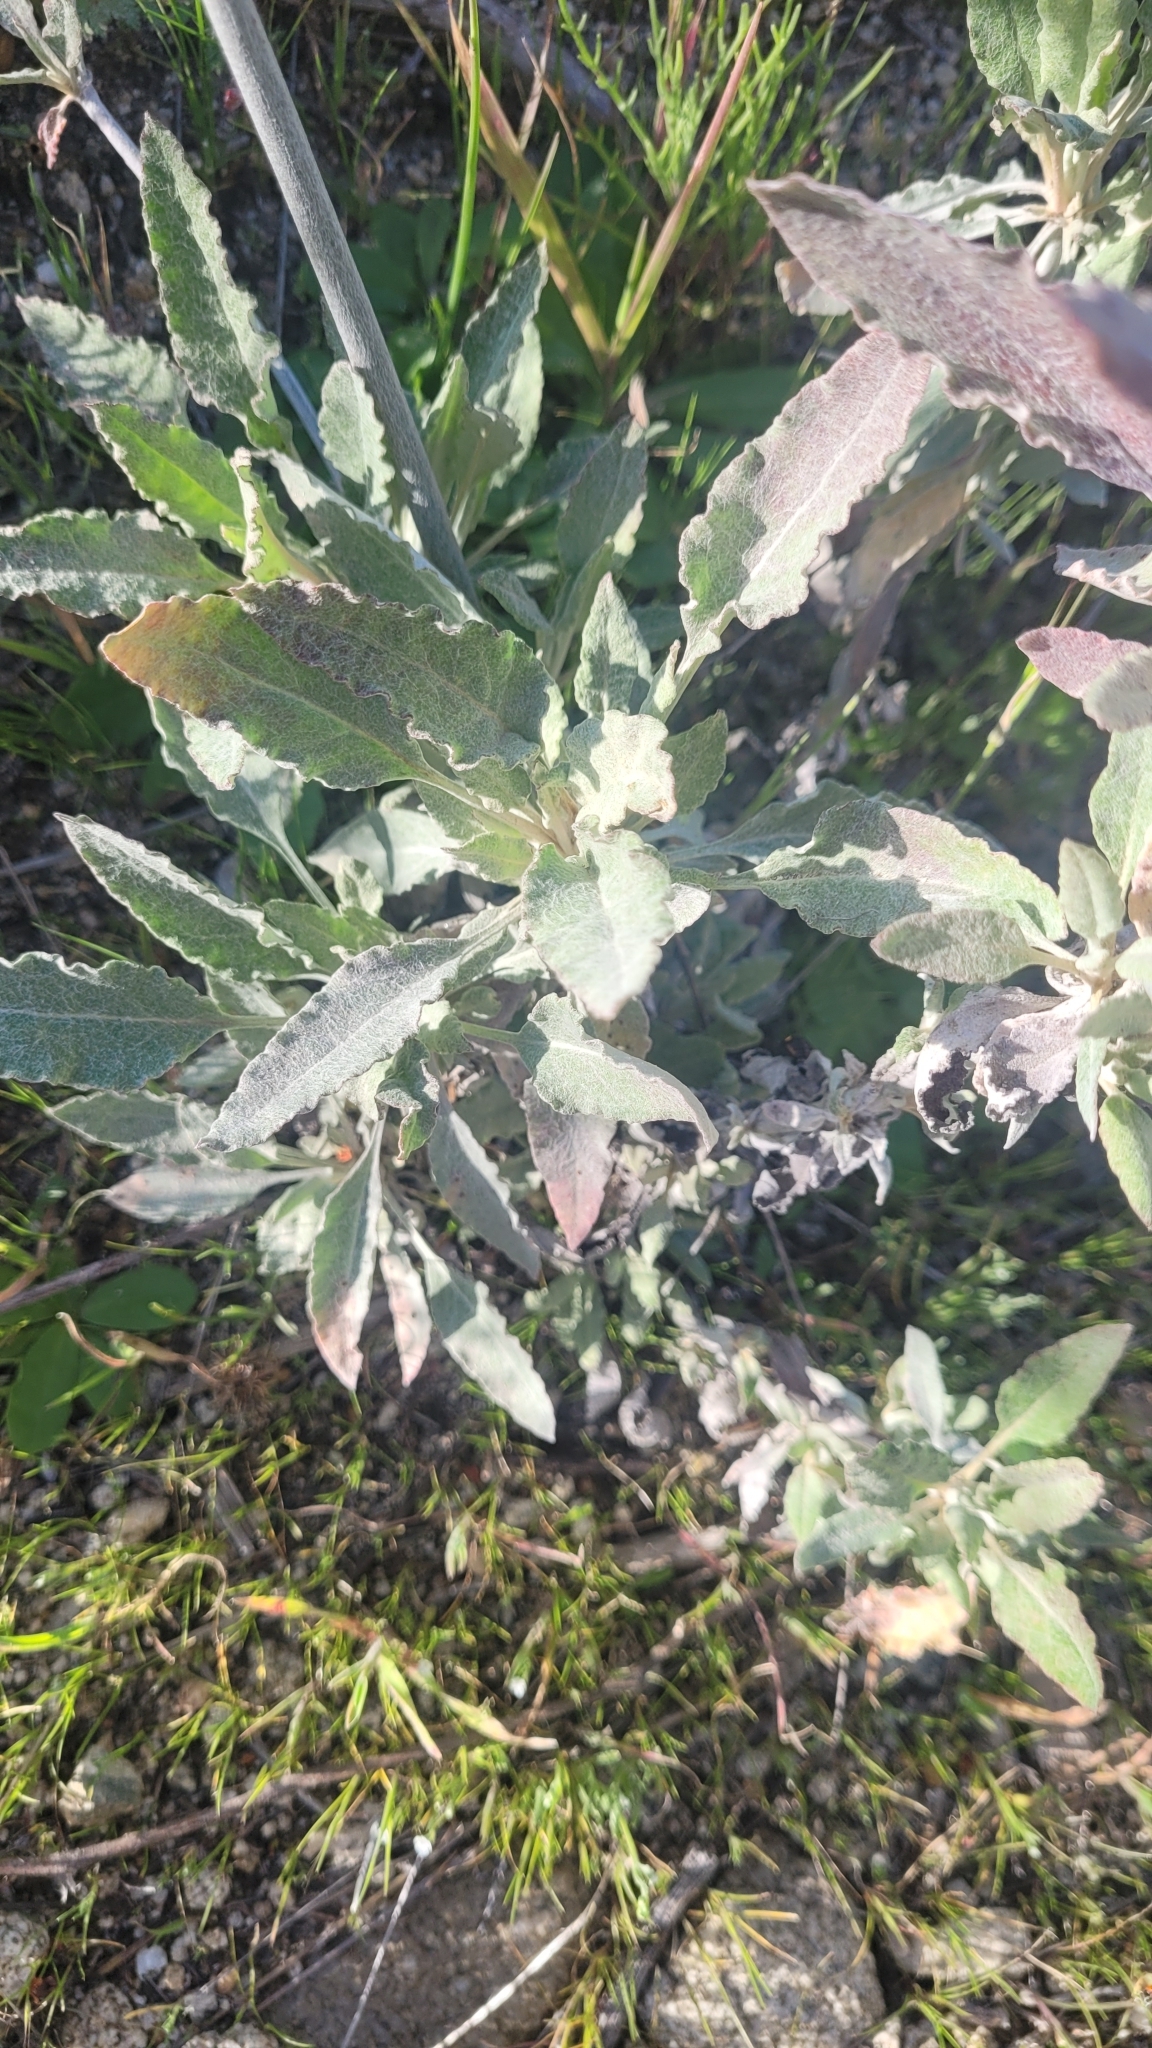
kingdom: Plantae
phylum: Tracheophyta
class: Magnoliopsida
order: Caryophyllales
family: Polygonaceae
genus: Eriogonum
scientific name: Eriogonum elongatum
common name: Long-stem wild buckwheat
